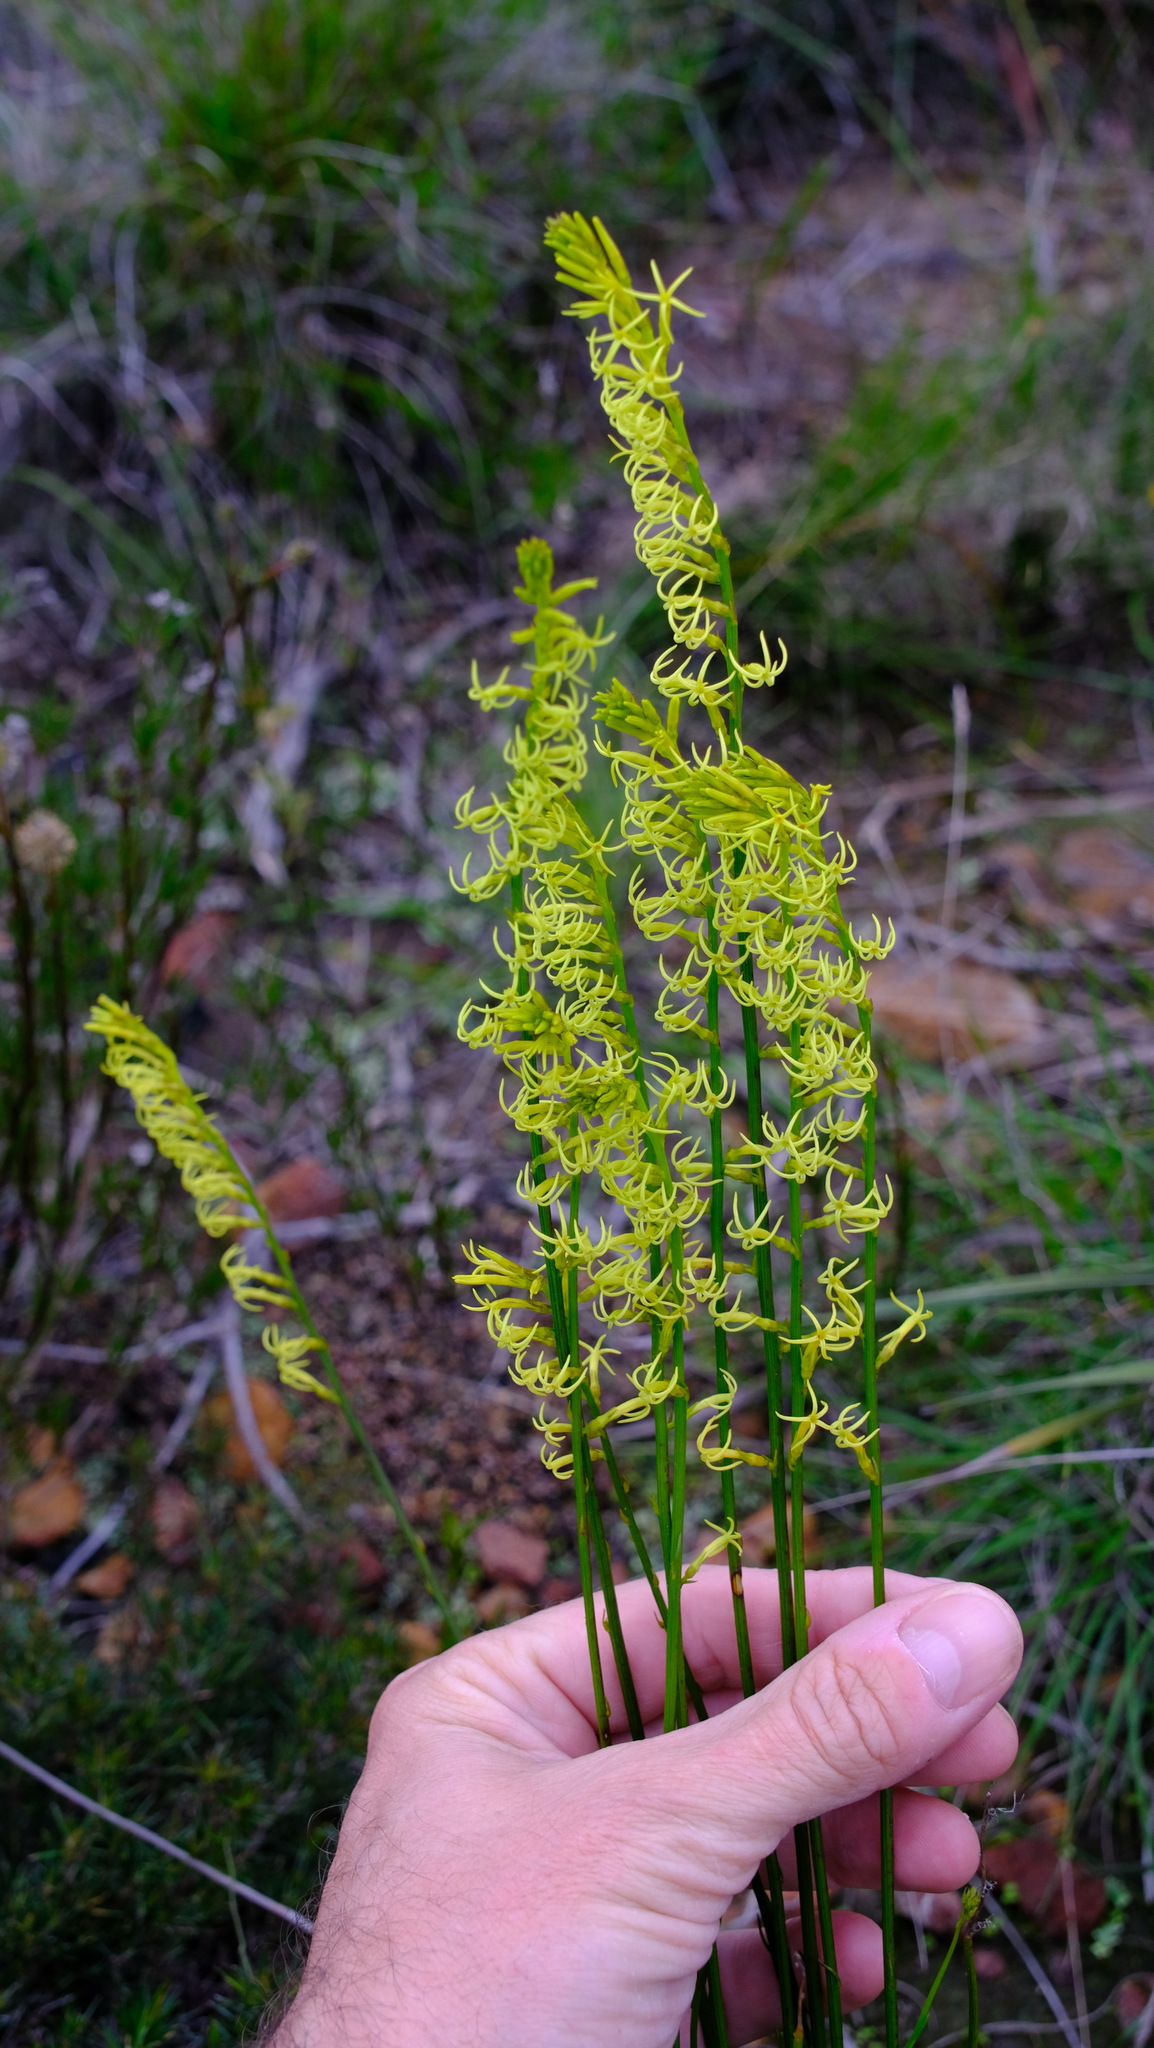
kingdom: Plantae
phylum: Tracheophyta
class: Magnoliopsida
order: Celastrales
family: Celastraceae
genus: Tripterococcus
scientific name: Tripterococcus brunonis
